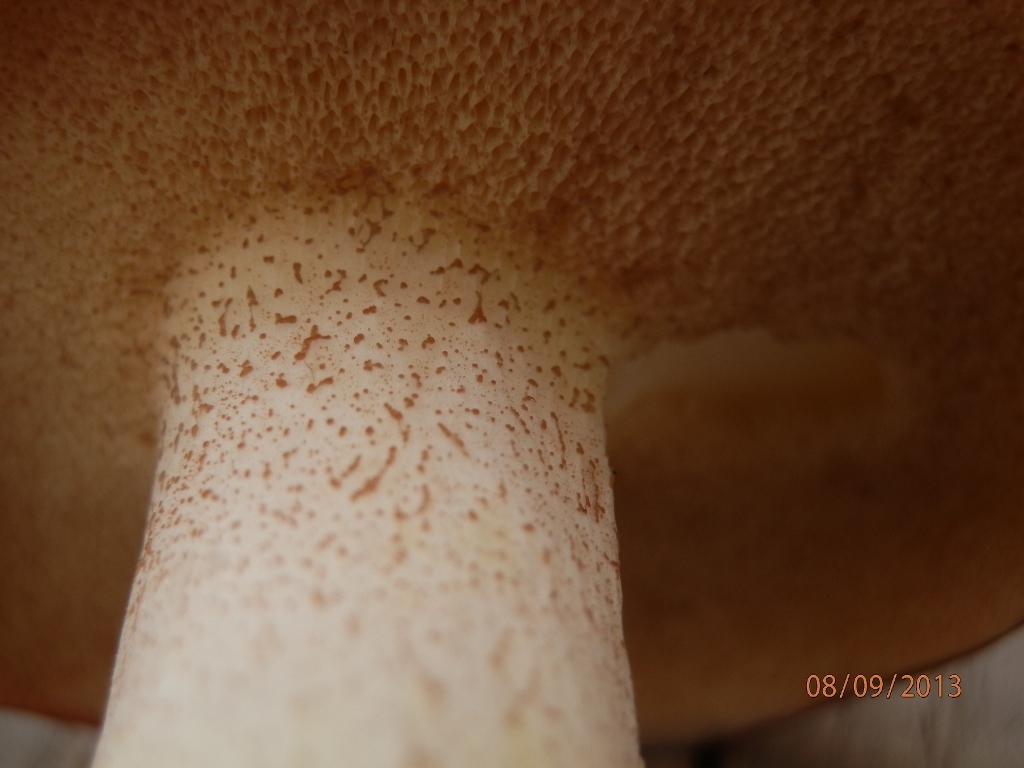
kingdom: Fungi
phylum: Basidiomycota
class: Agaricomycetes
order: Boletales
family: Suillaceae
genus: Fuscoboletinus
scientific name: Fuscoboletinus weaverae
